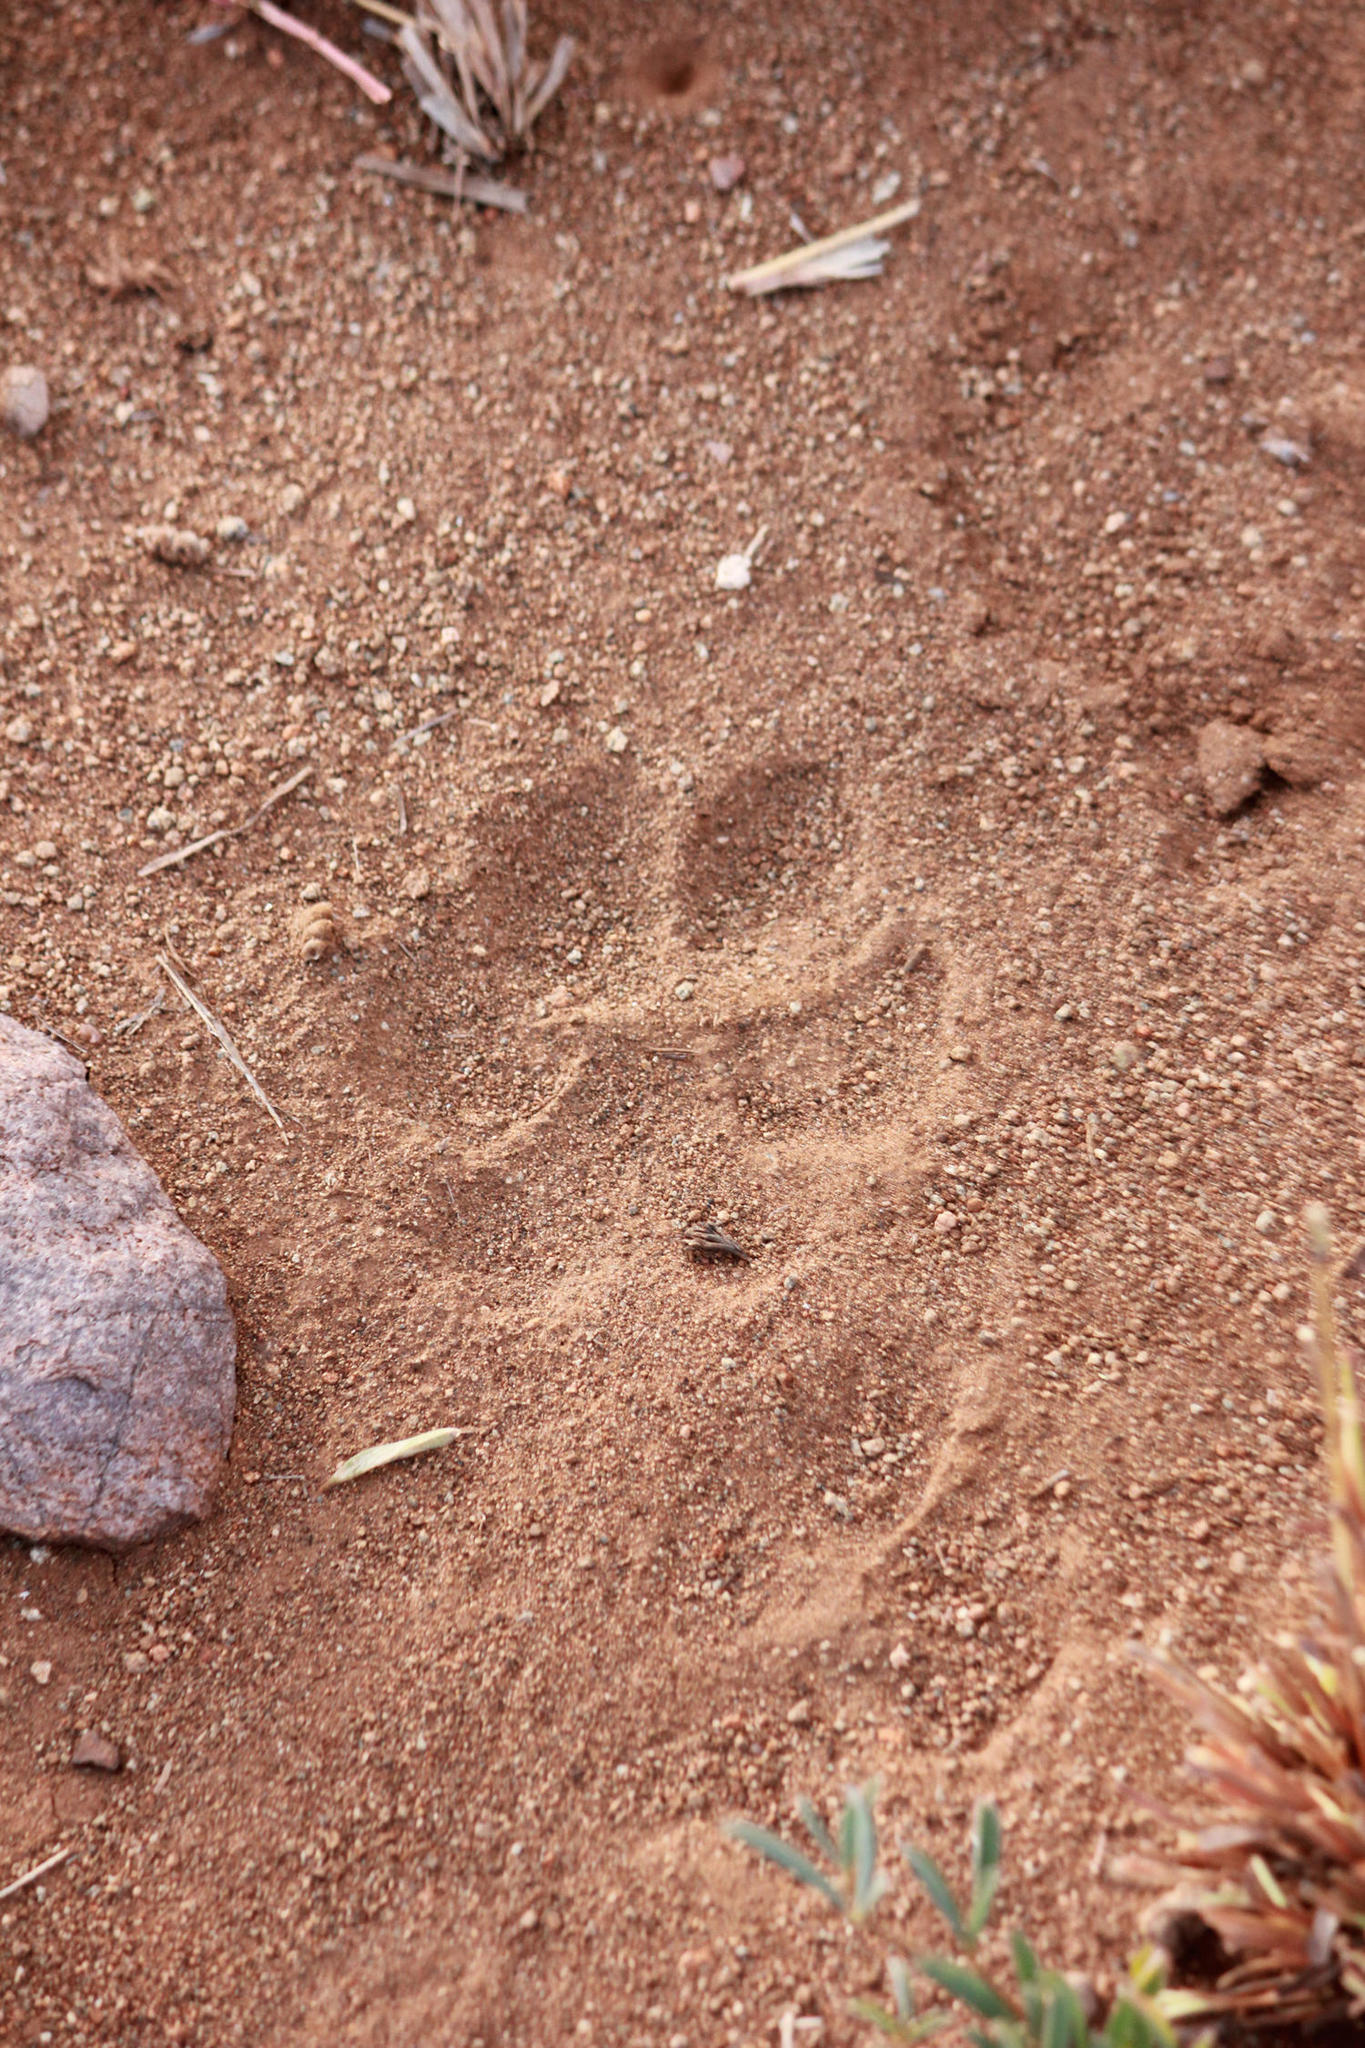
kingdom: Animalia
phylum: Chordata
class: Mammalia
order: Carnivora
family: Hyaenidae
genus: Hyaena
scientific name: Hyaena brunnea
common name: Brown hyena
